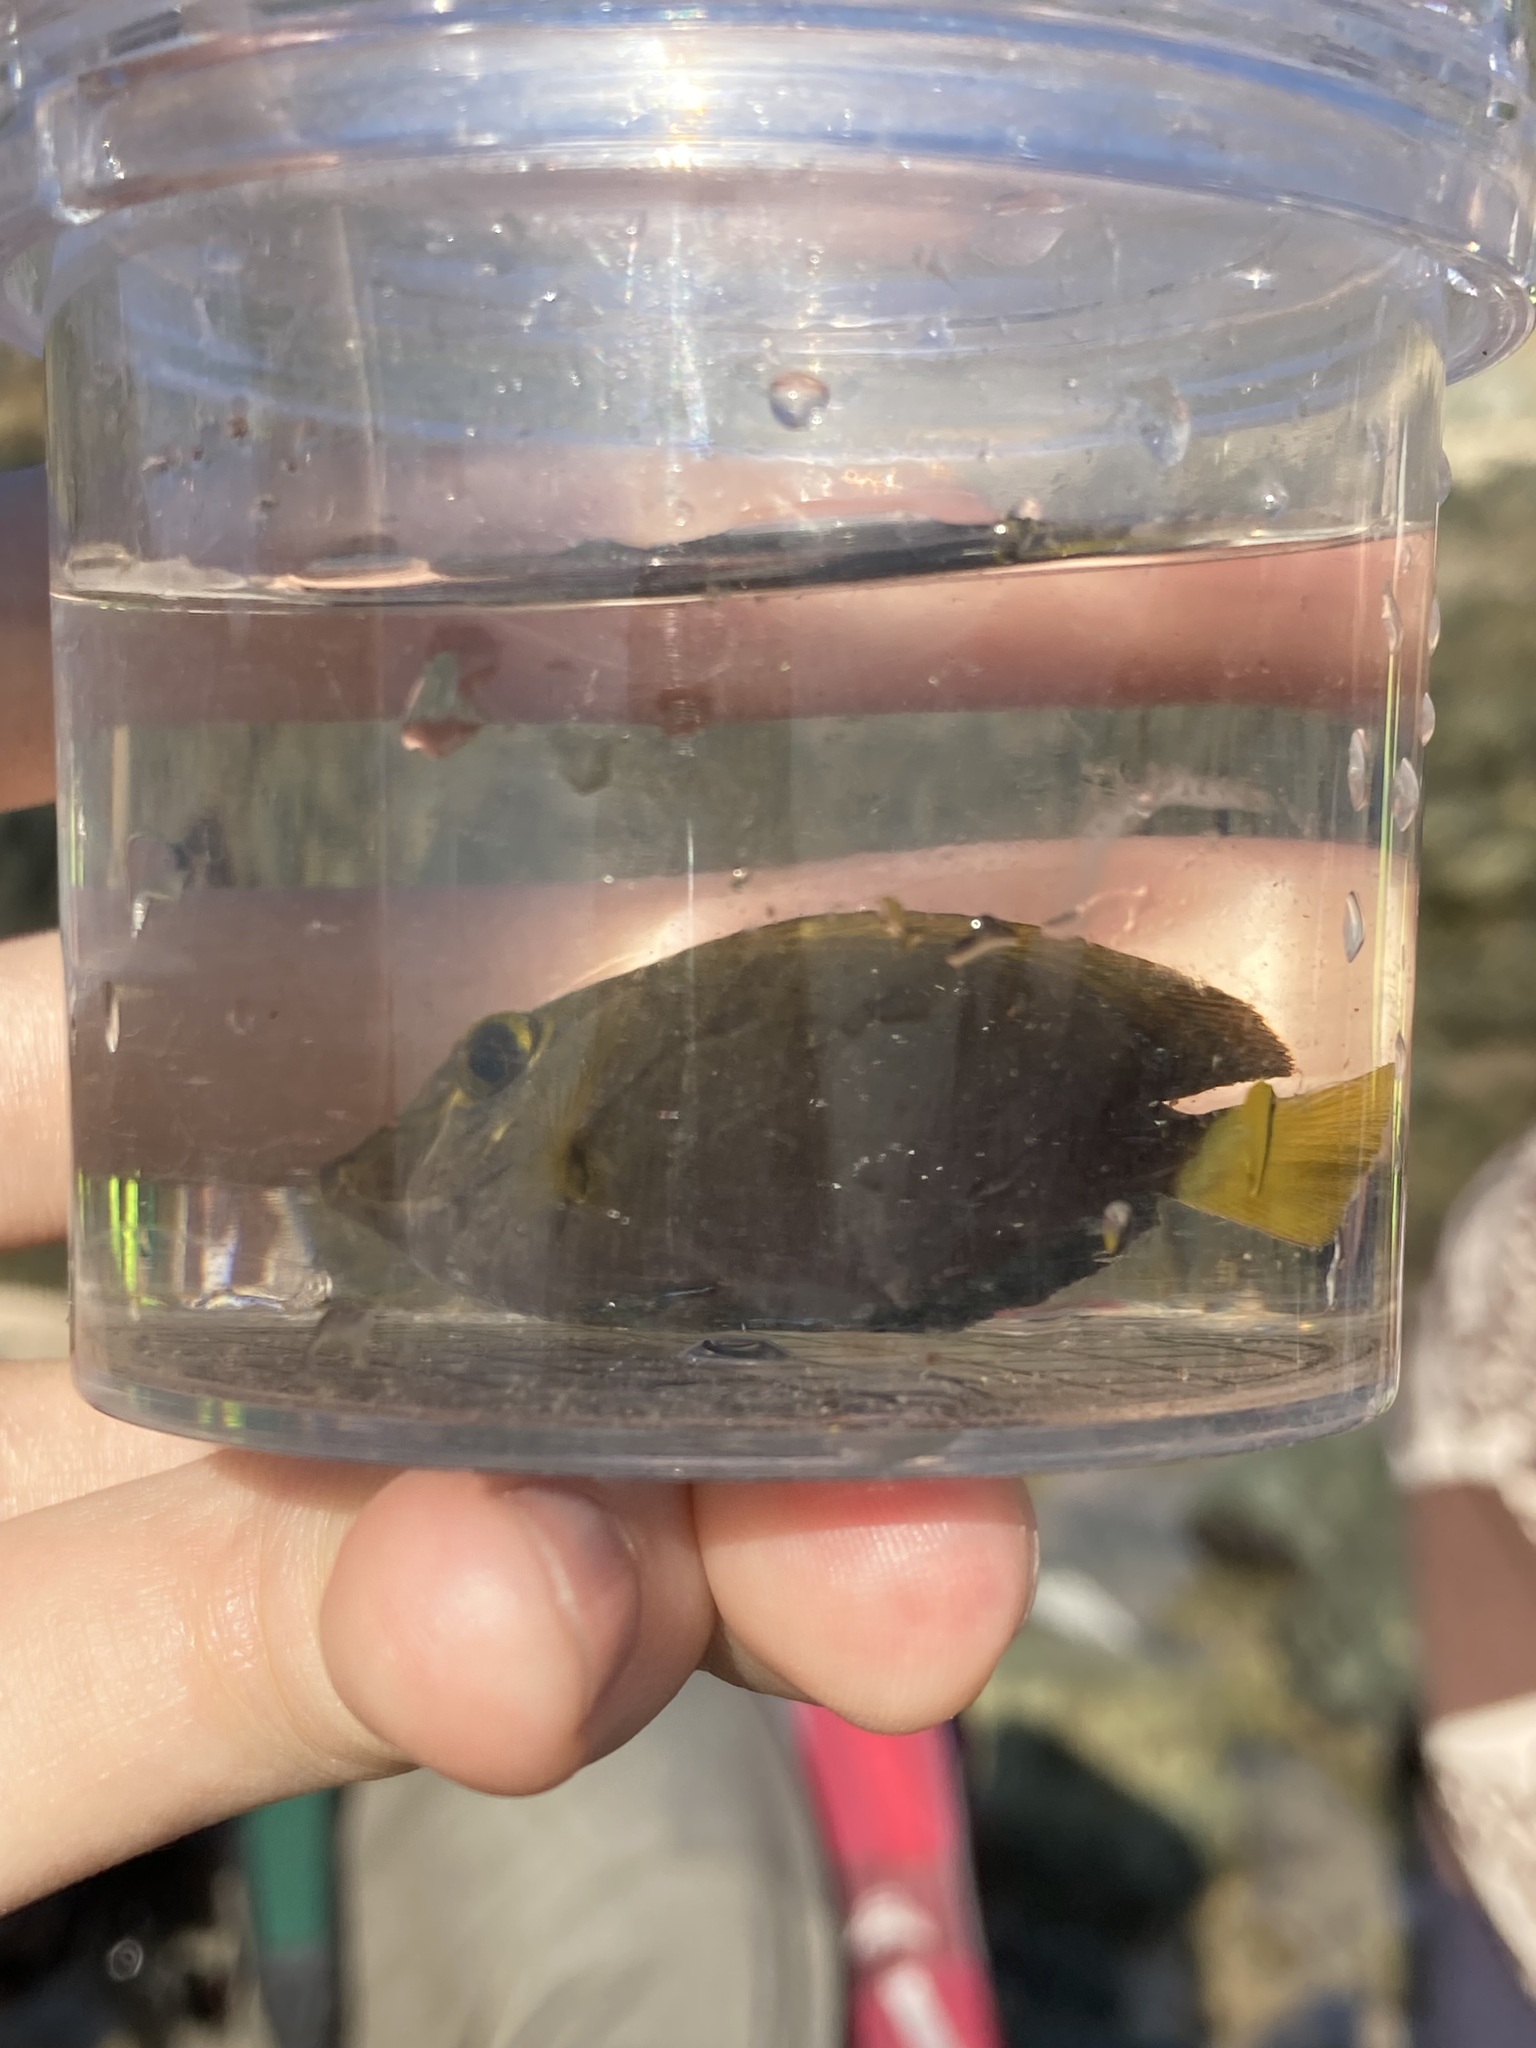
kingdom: Animalia
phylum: Chordata
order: Perciformes
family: Acanthuridae
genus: Acanthurus
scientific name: Acanthurus dussumieri
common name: Dussumier's surgeonfish
